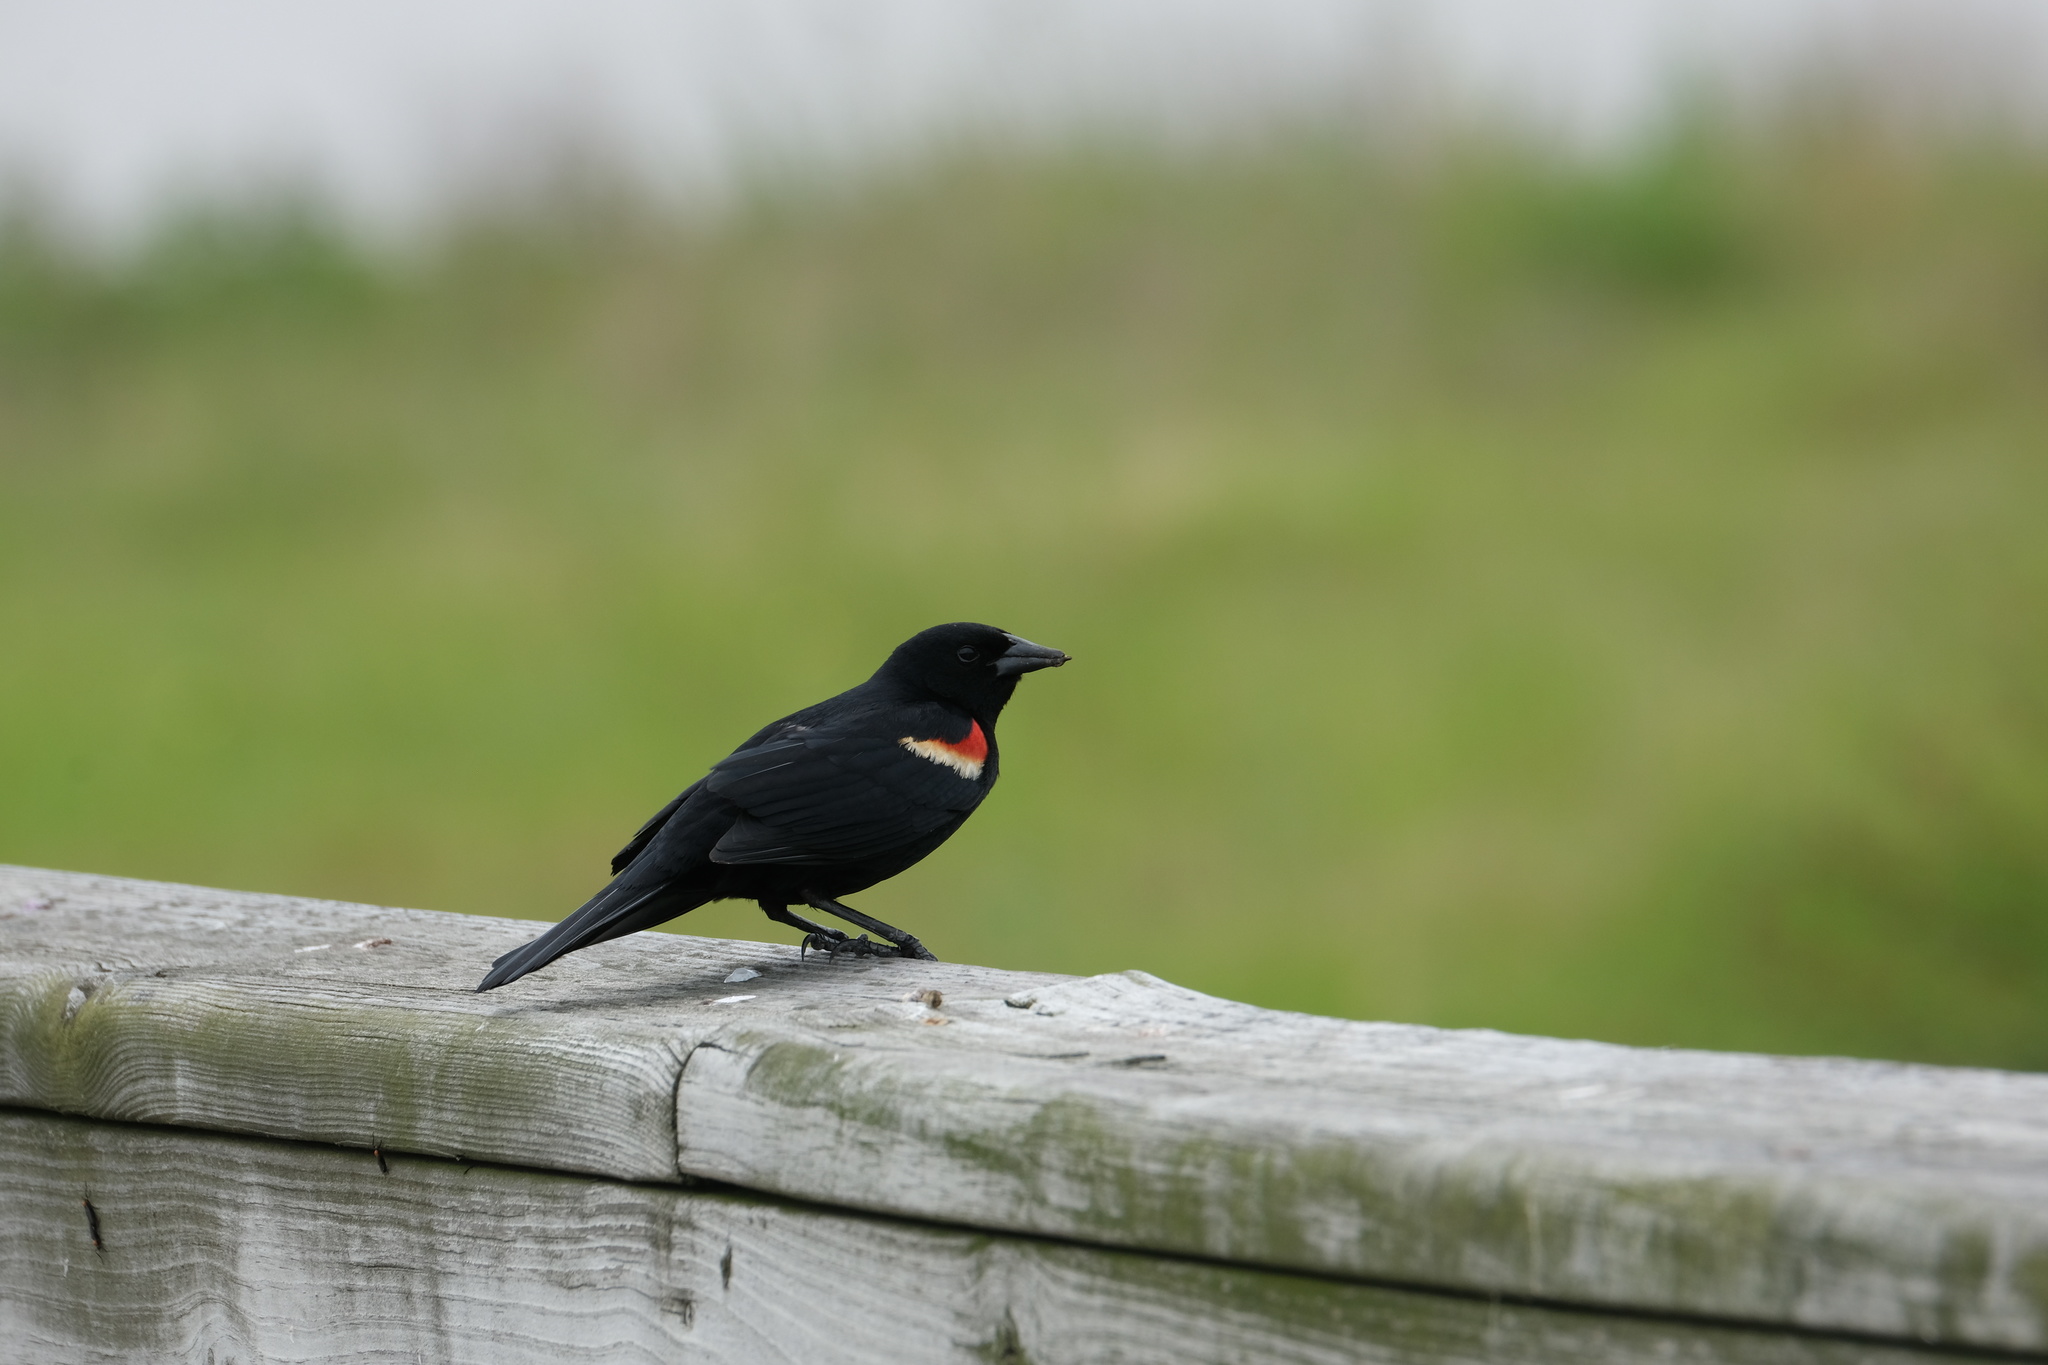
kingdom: Animalia
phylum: Chordata
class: Aves
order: Passeriformes
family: Icteridae
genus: Agelaius
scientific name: Agelaius phoeniceus
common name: Red-winged blackbird
